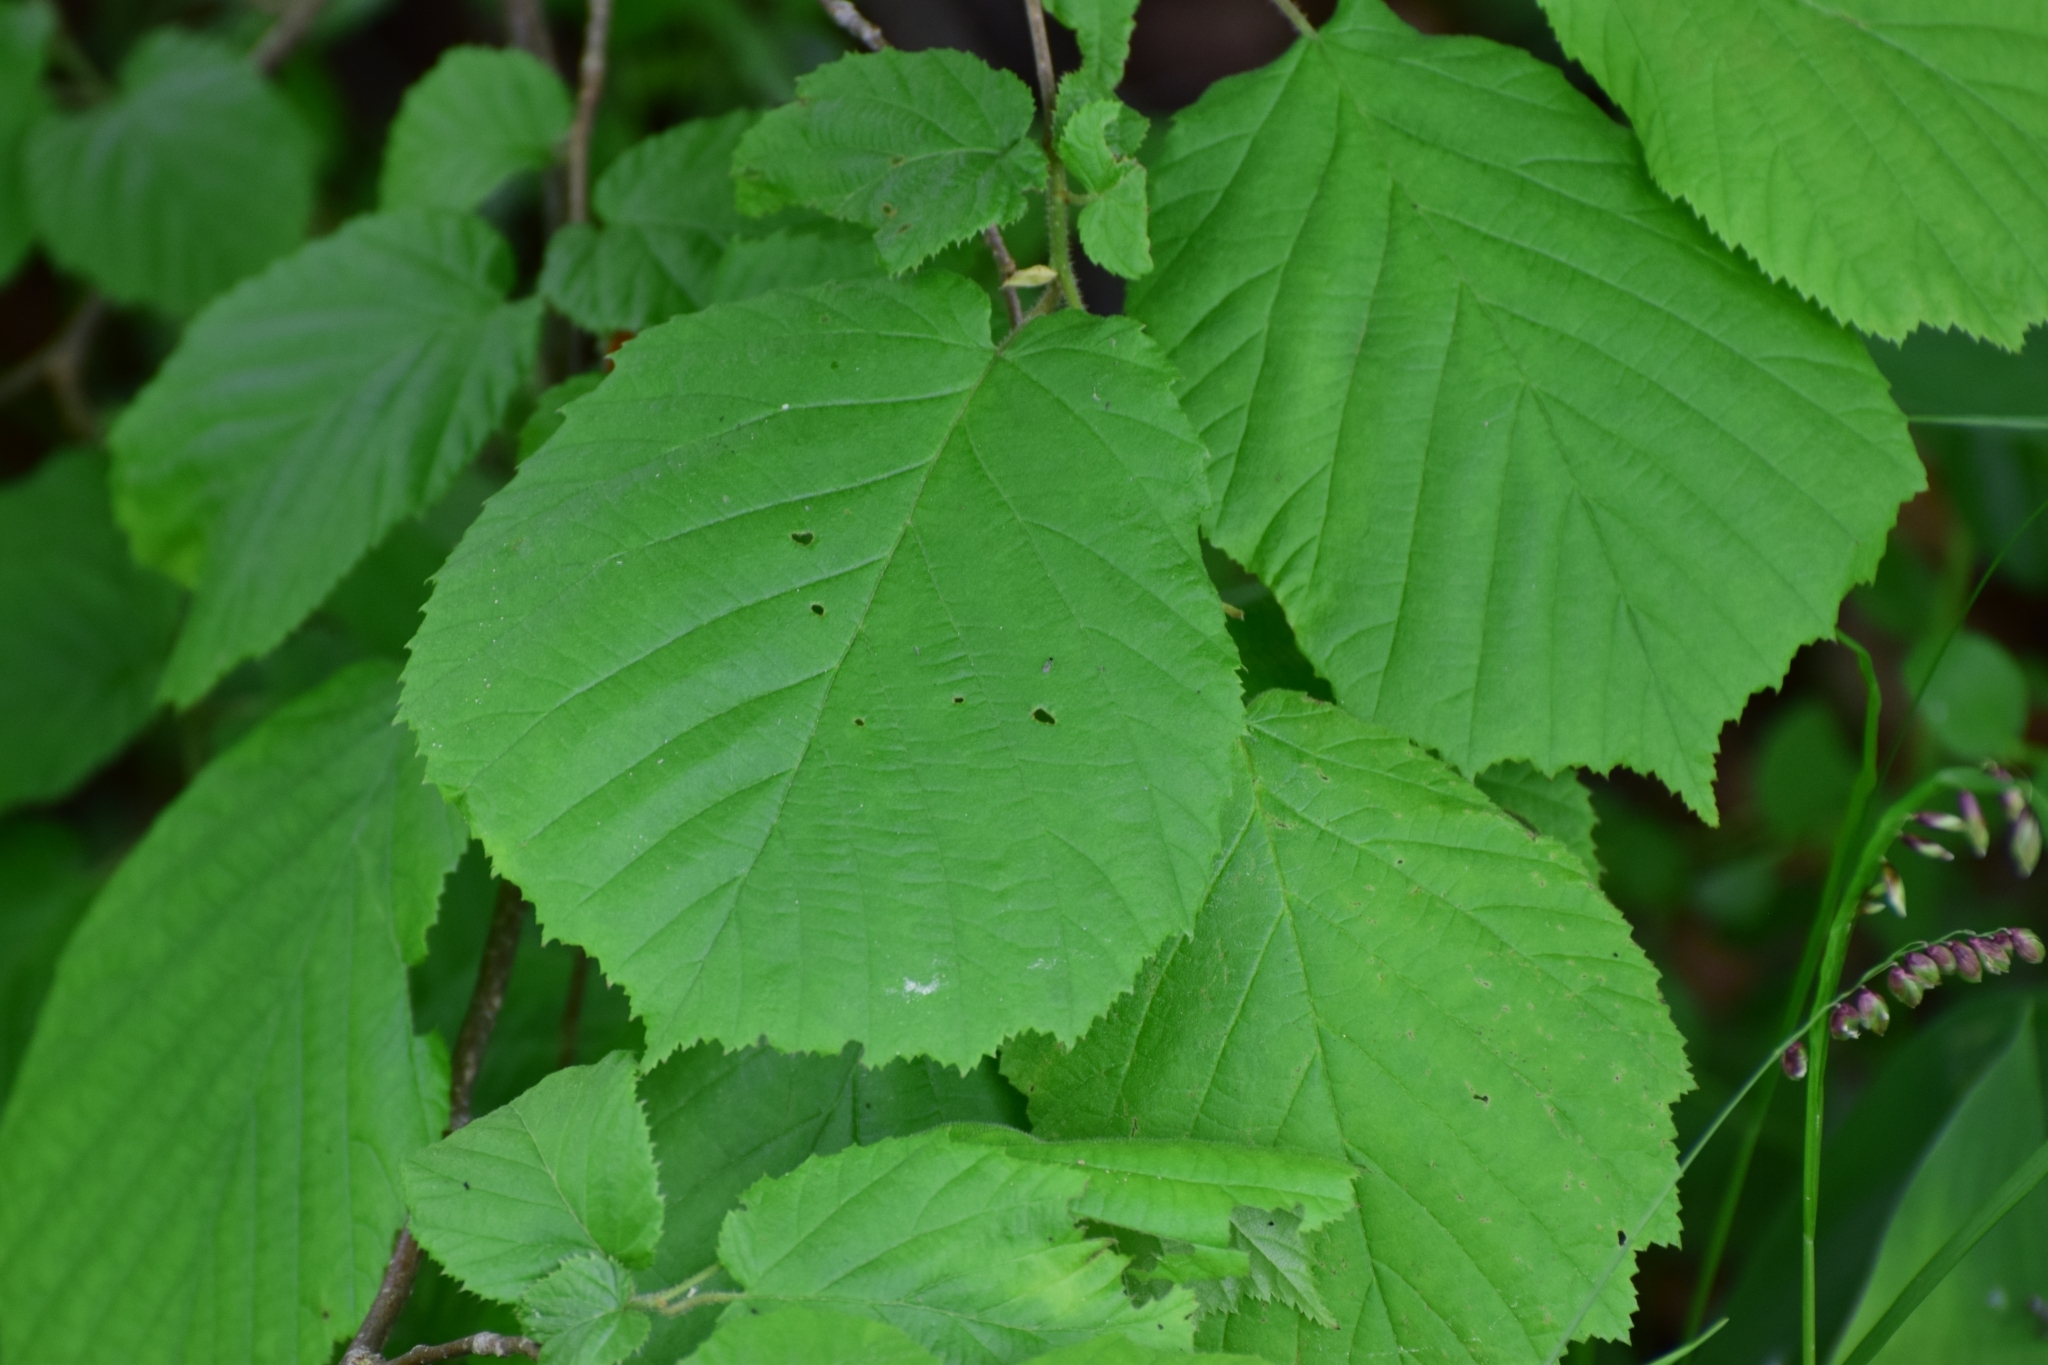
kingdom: Plantae
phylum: Tracheophyta
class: Magnoliopsida
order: Fagales
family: Betulaceae
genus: Corylus
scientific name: Corylus avellana
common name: European hazel
